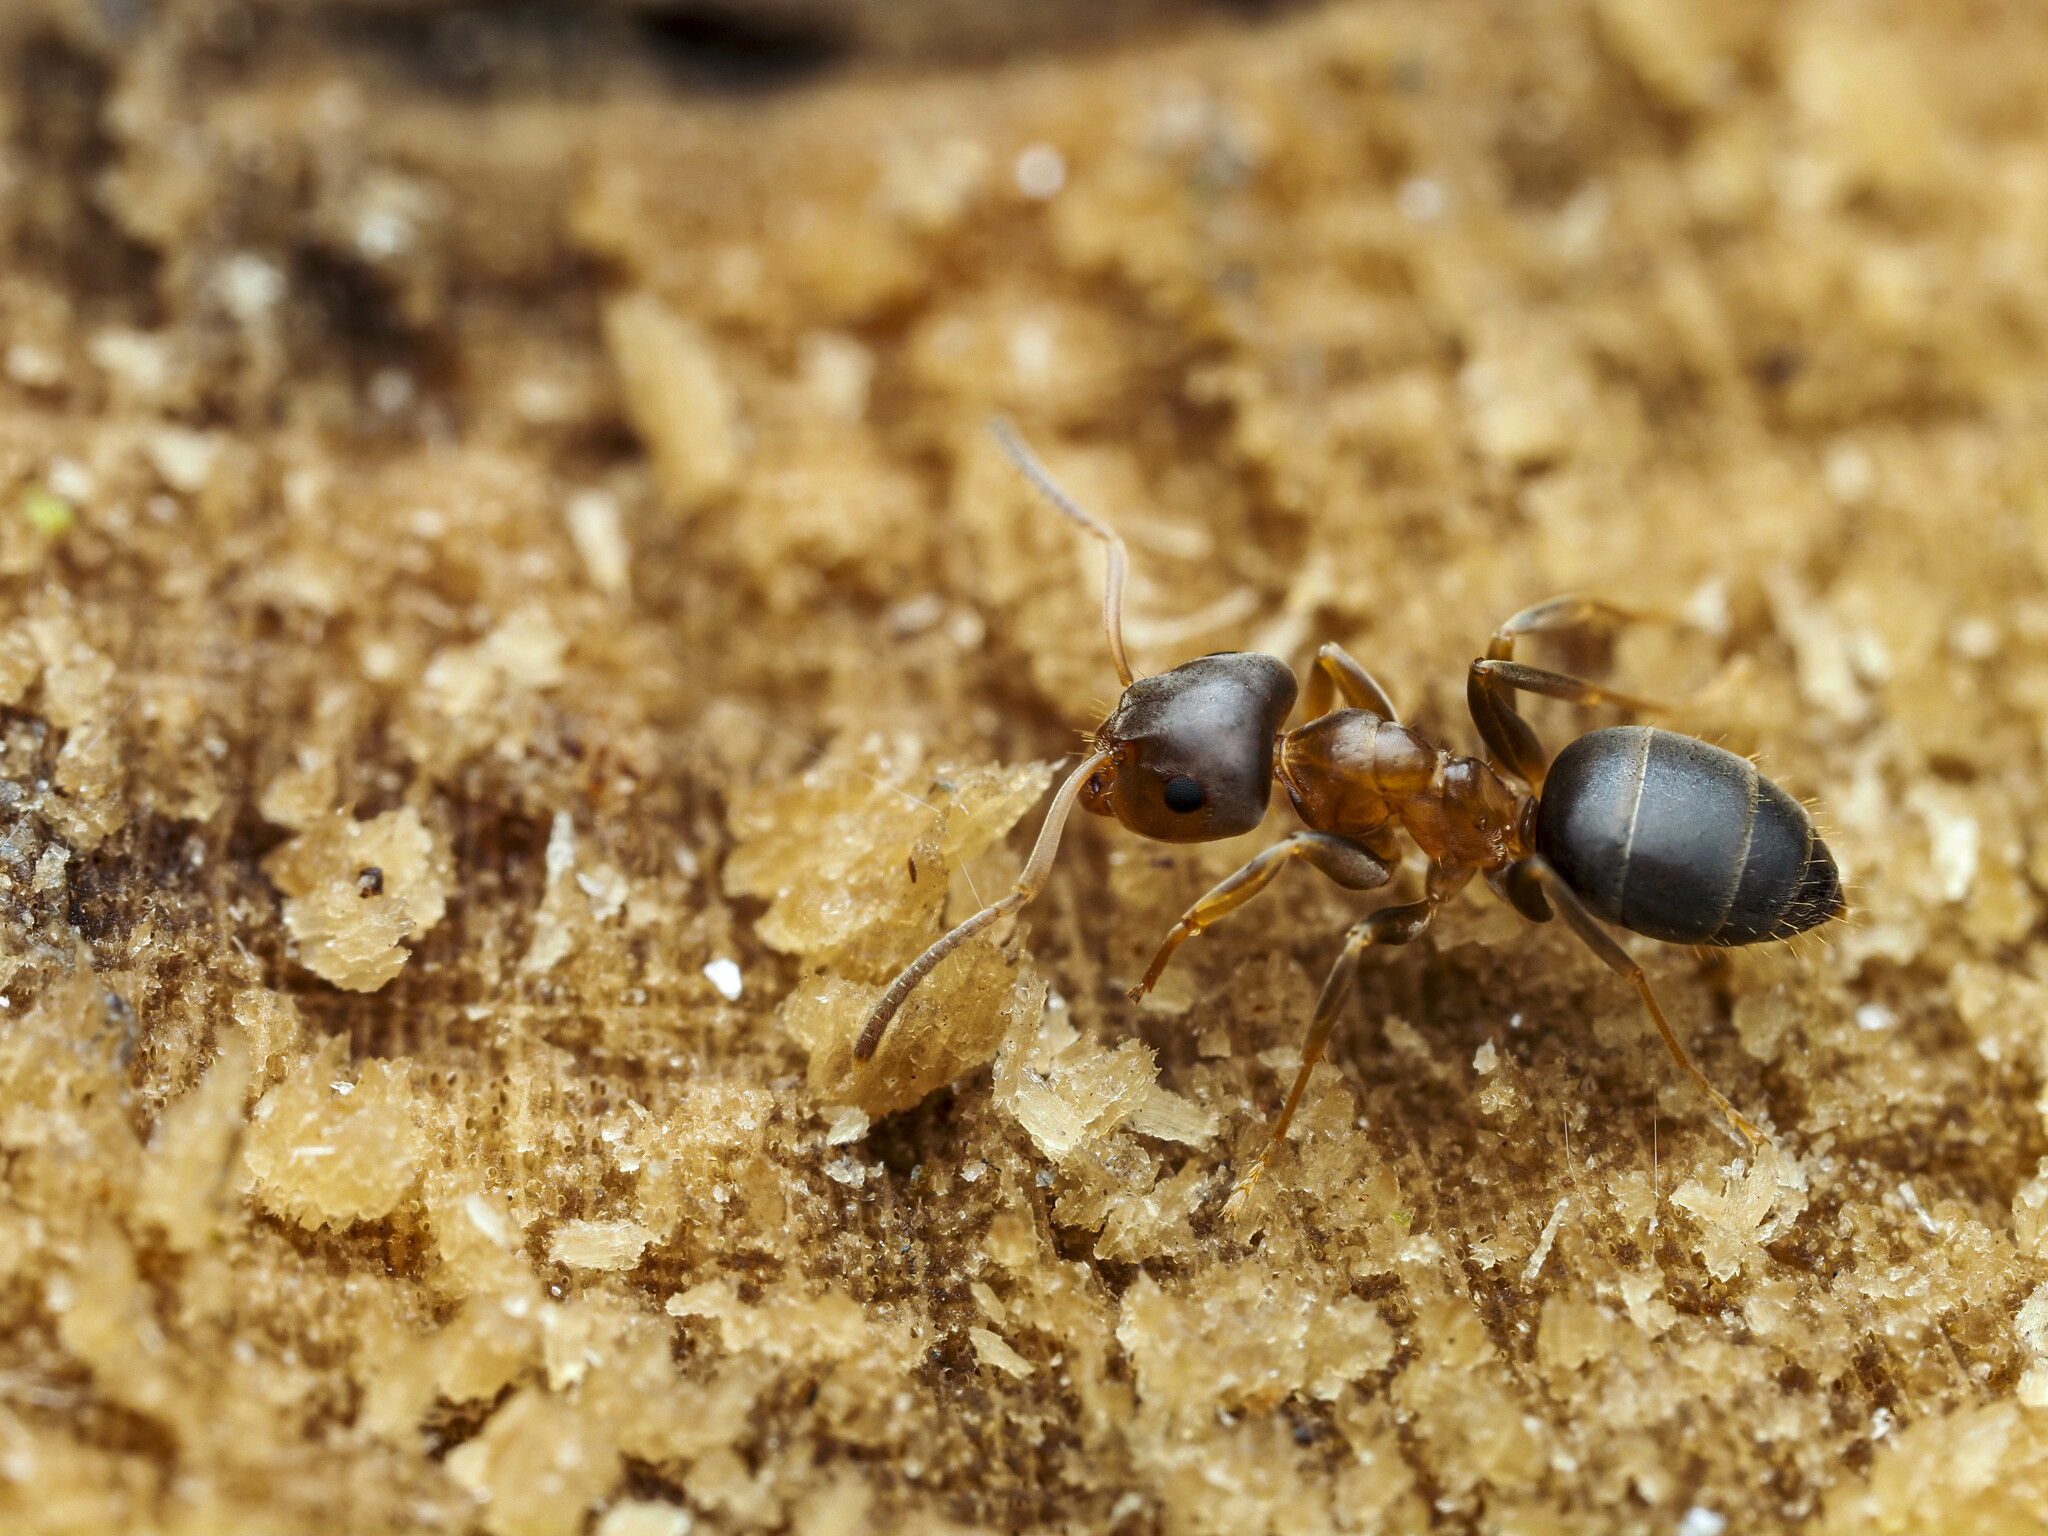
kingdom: Animalia
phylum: Arthropoda
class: Insecta
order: Hymenoptera
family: Formicidae
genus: Lasius
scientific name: Lasius brunneus
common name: Brown ant
